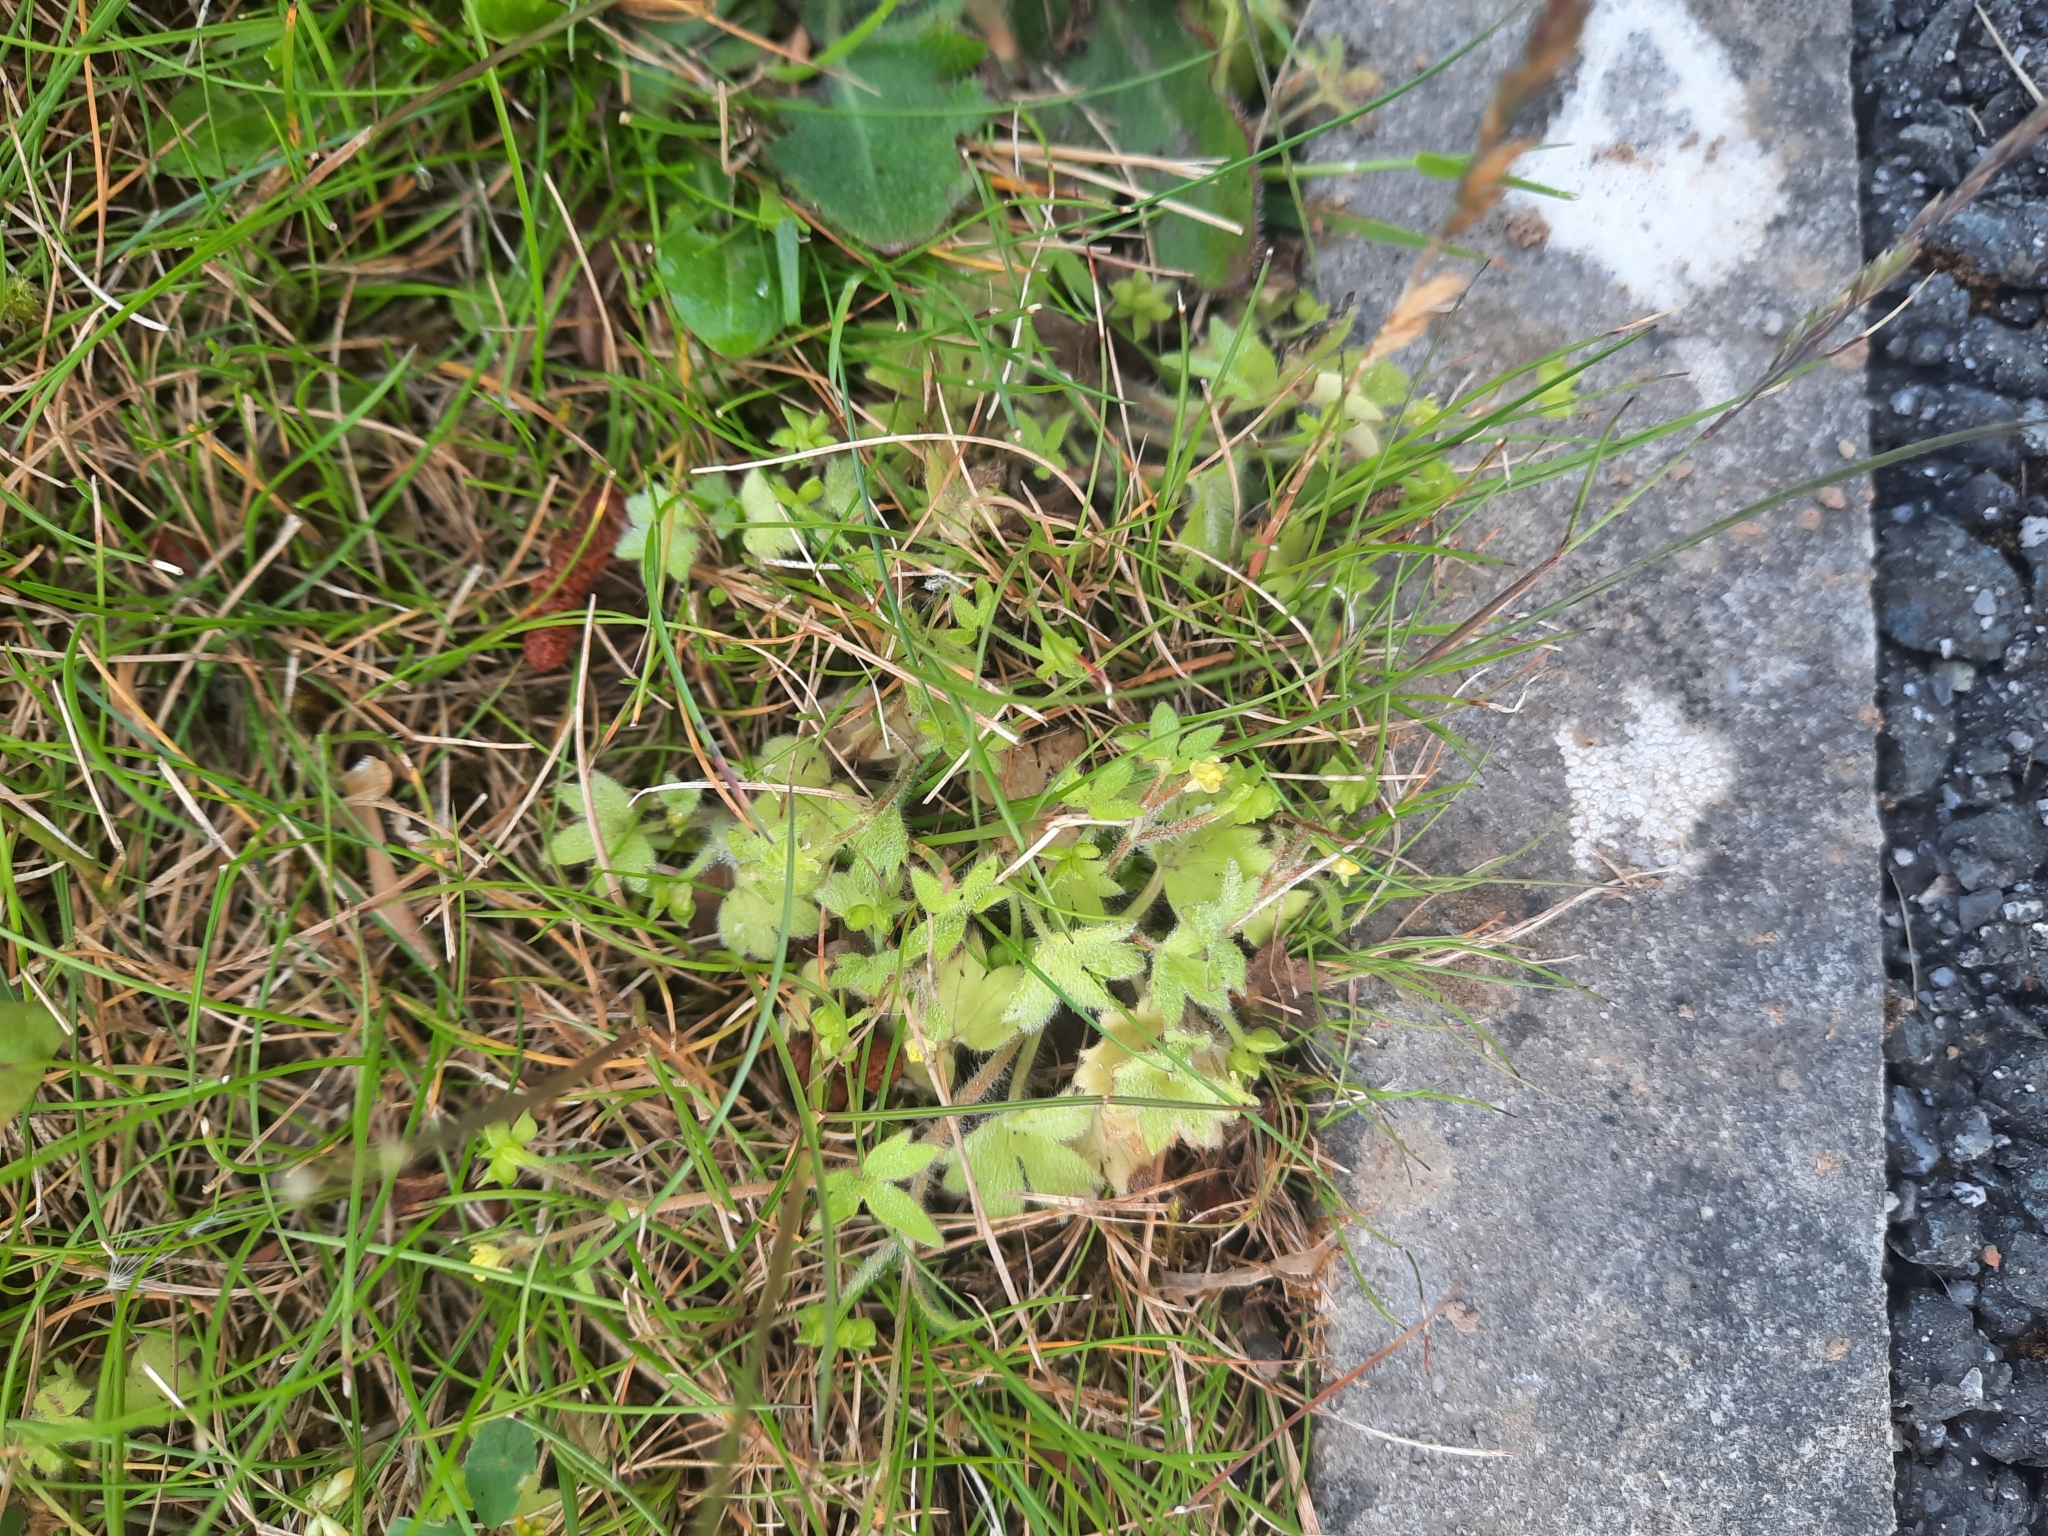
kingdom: Plantae
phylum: Tracheophyta
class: Magnoliopsida
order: Ranunculales
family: Ranunculaceae
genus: Ranunculus
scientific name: Ranunculus parviflorus
